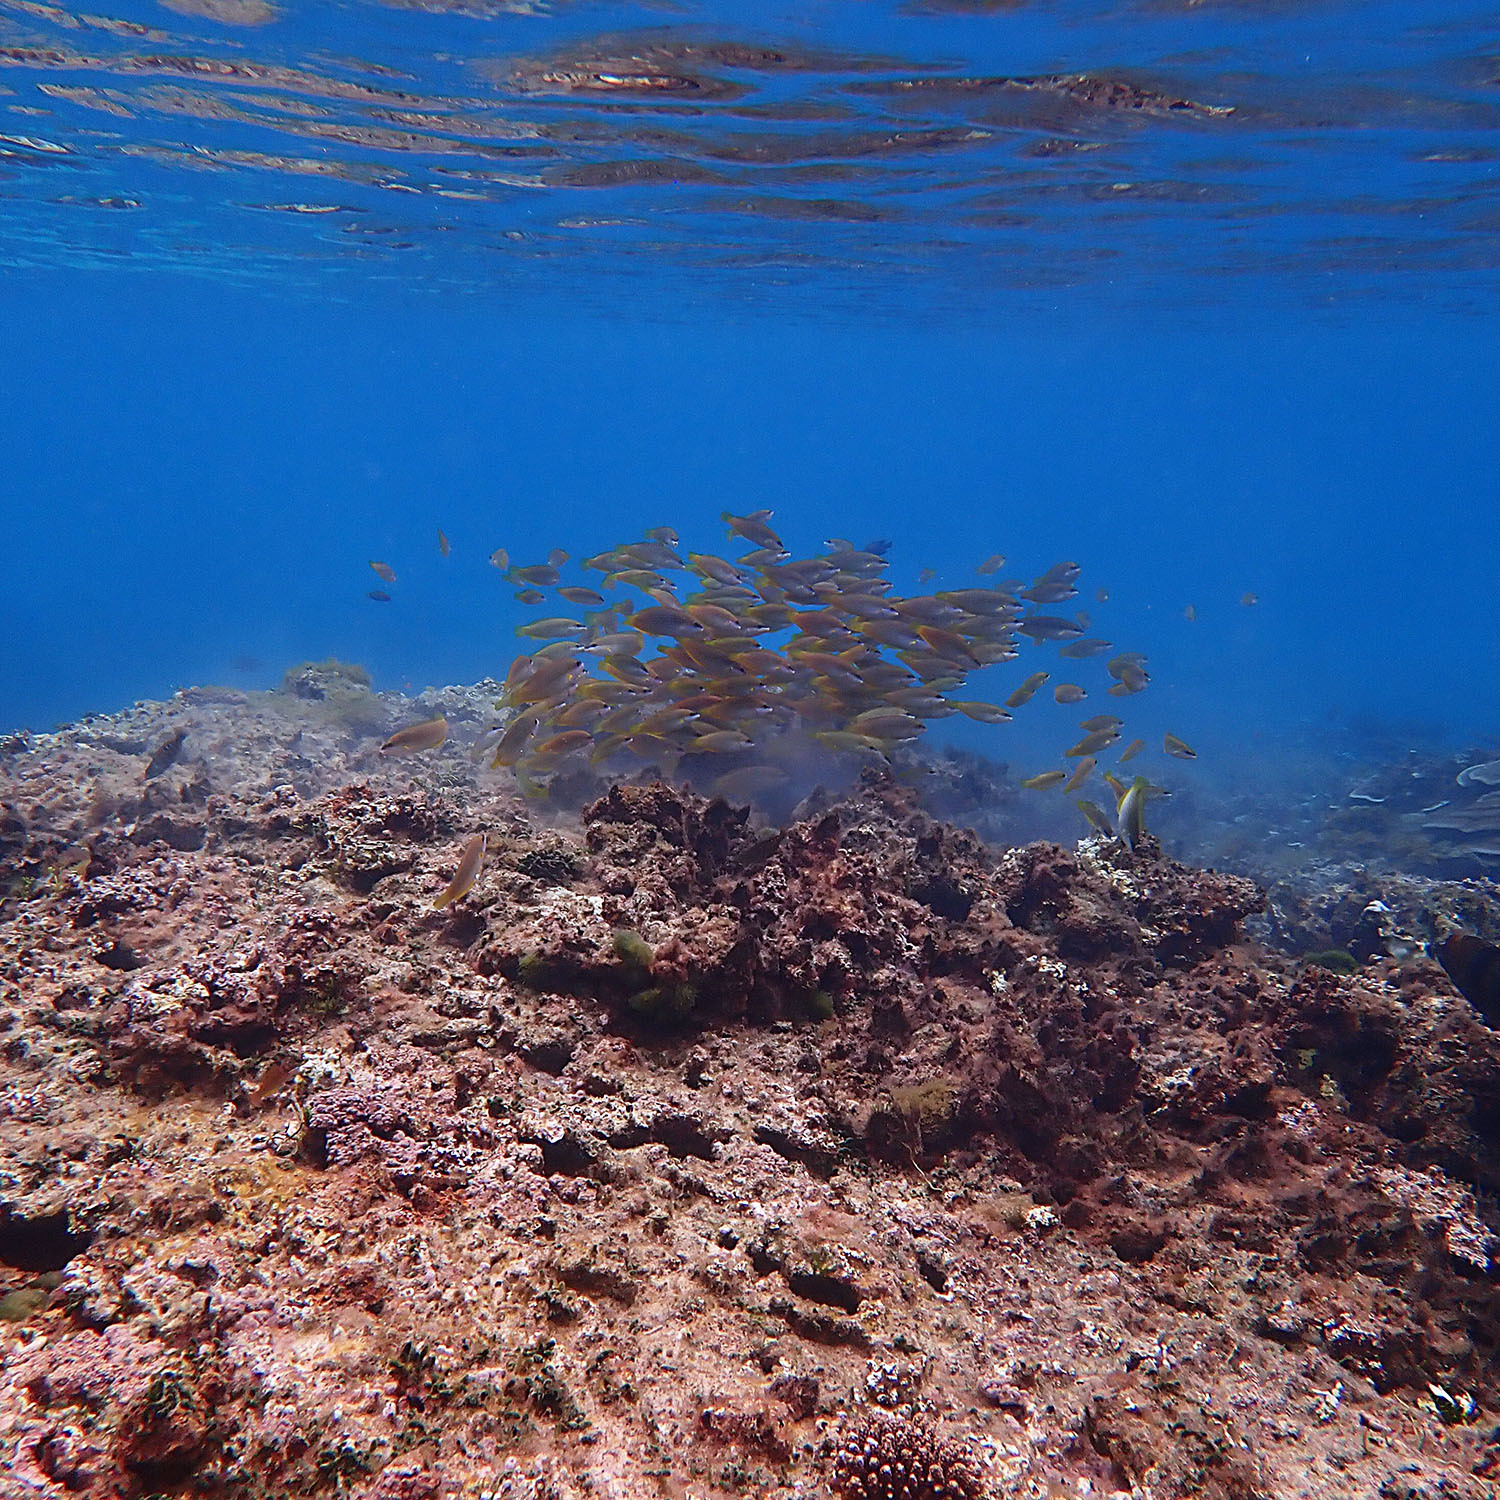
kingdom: Animalia
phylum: Chordata
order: Perciformes
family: Labridae
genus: Anampses
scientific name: Anampses elegans
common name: Elegant wrasse
